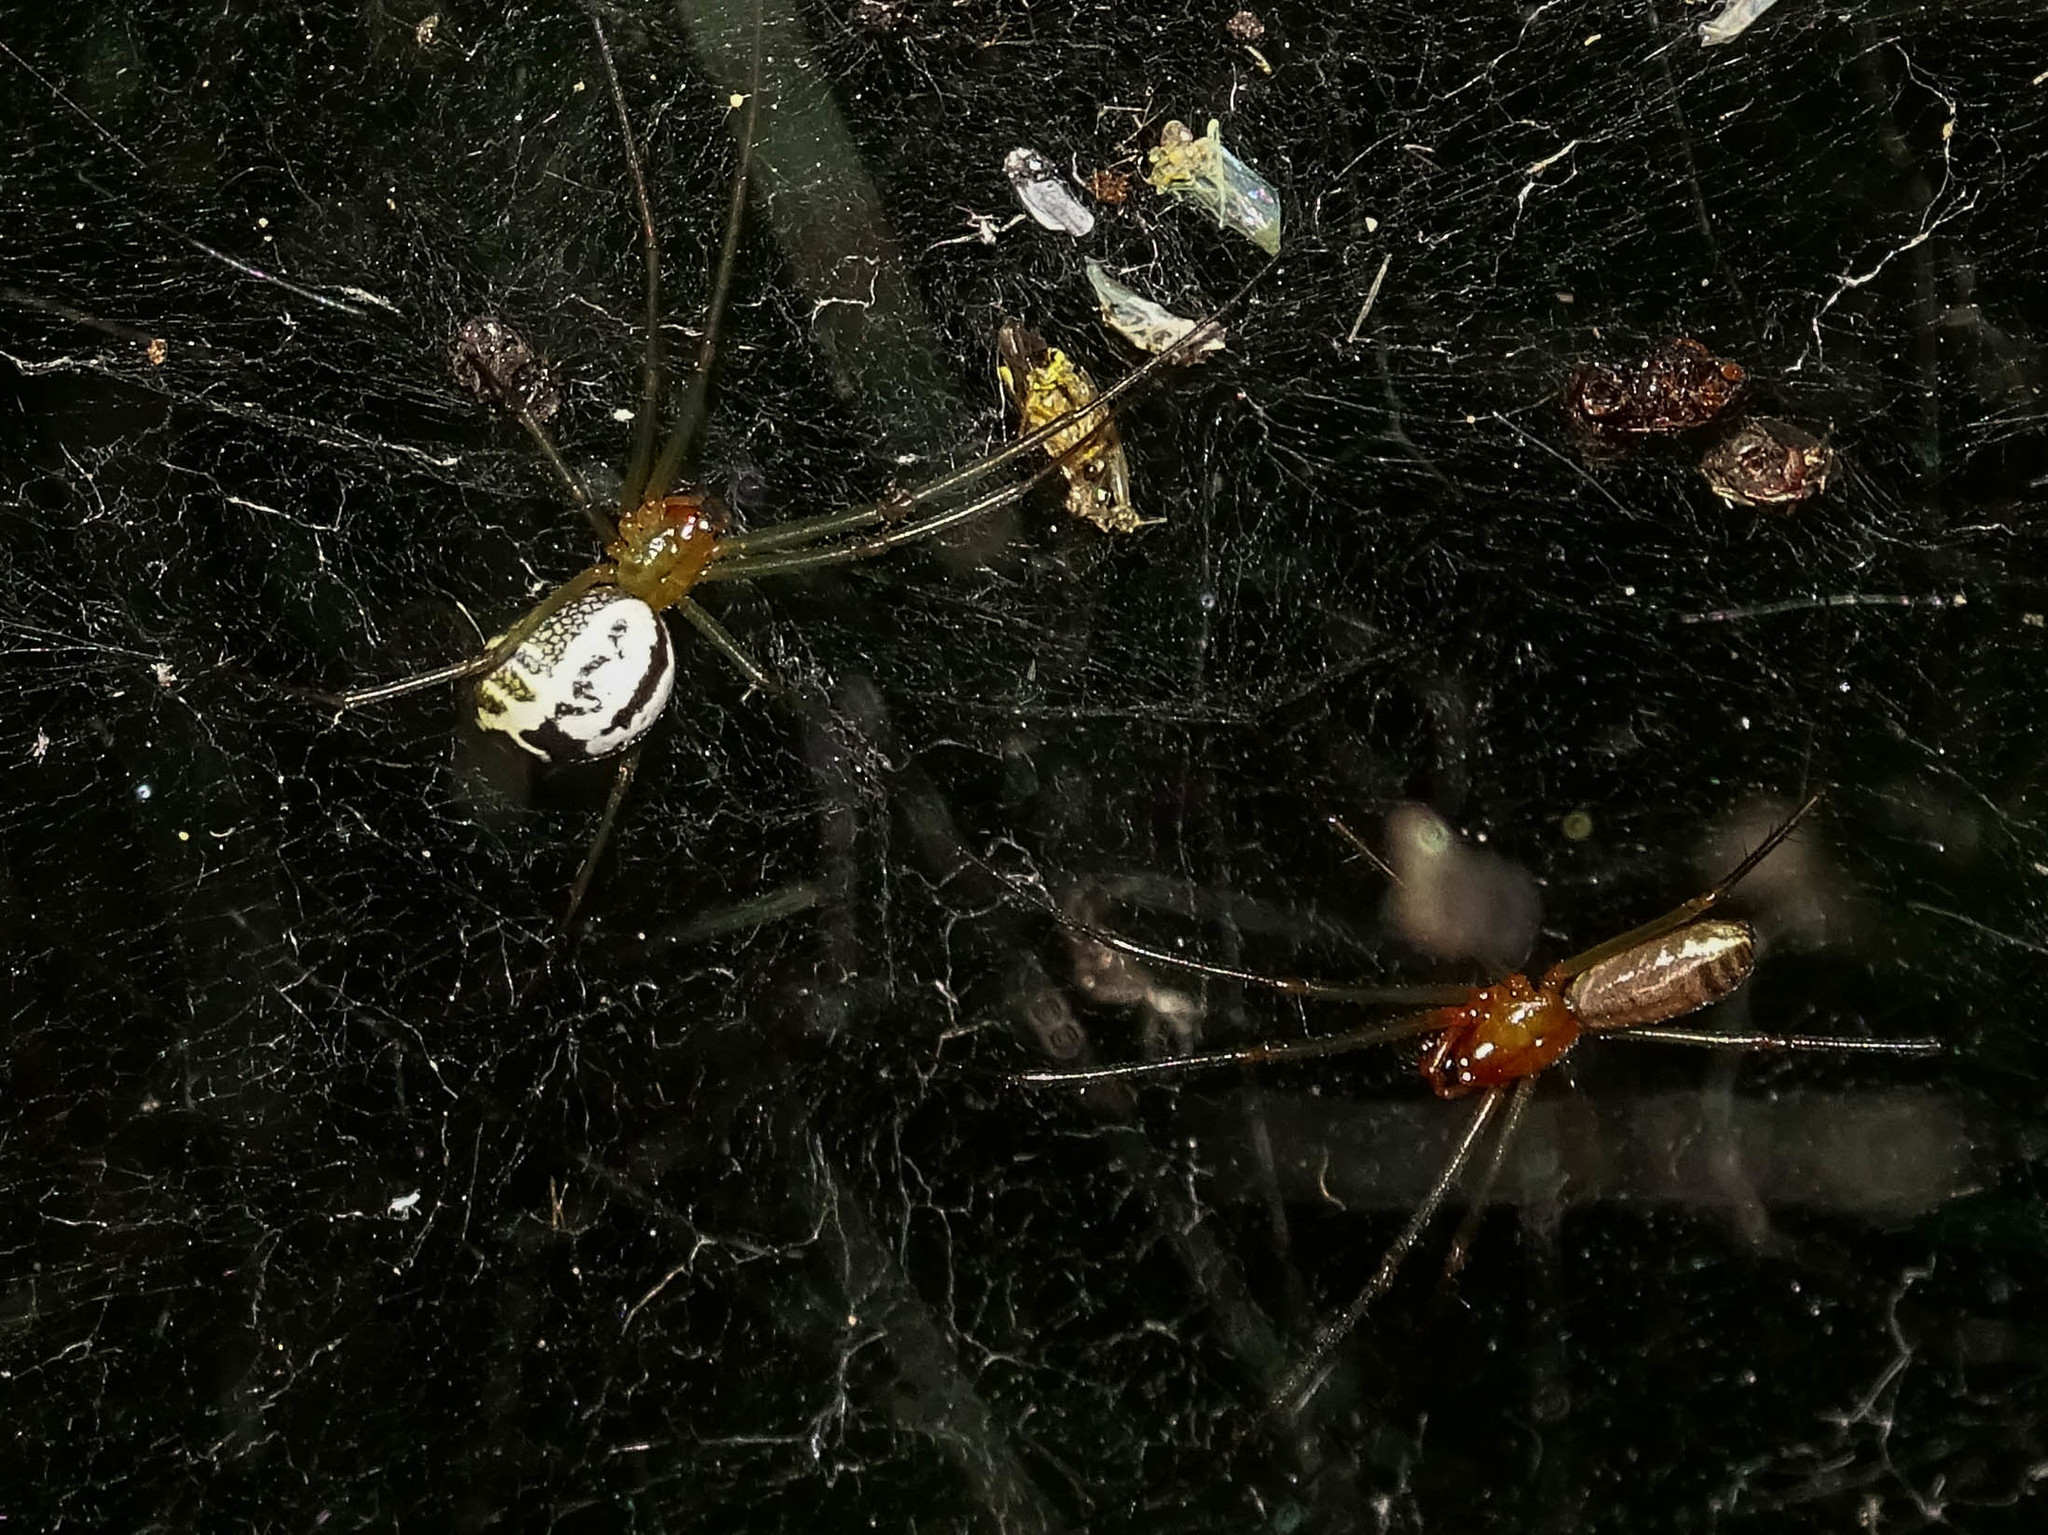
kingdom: Animalia
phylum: Arthropoda
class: Arachnida
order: Araneae
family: Linyphiidae
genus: Neriene
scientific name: Neriene emphana
